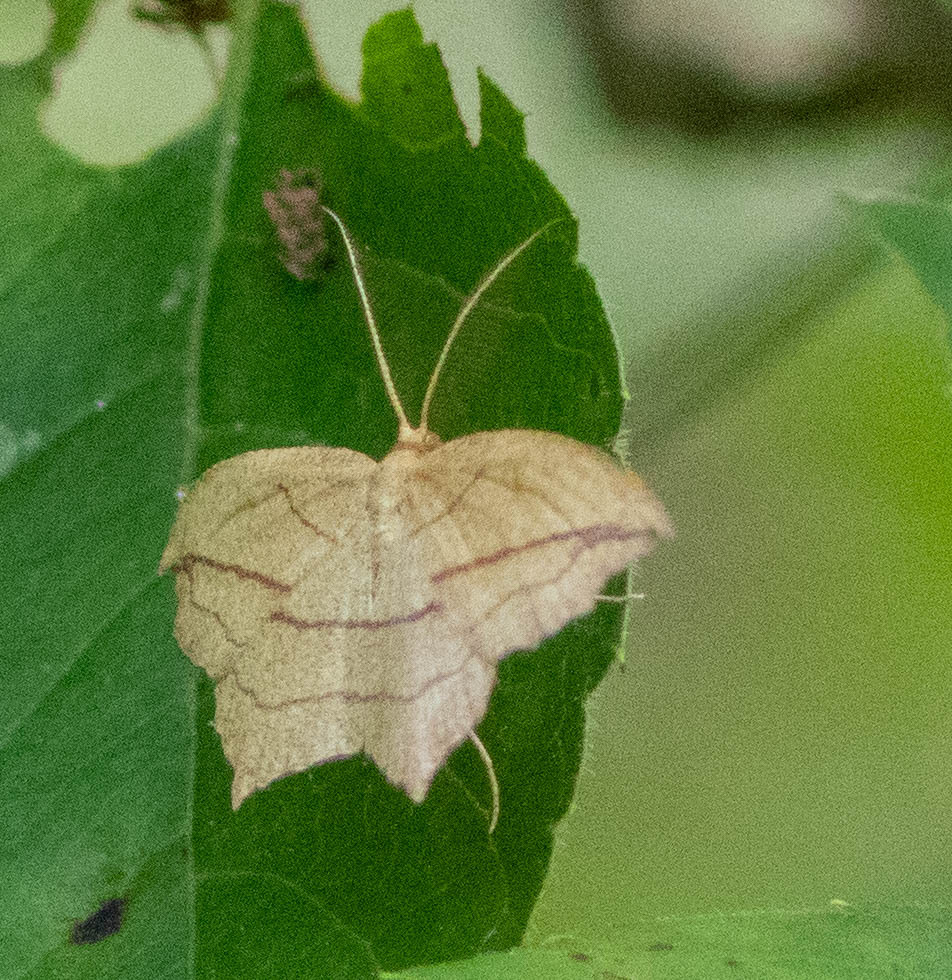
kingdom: Animalia
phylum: Arthropoda
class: Insecta
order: Lepidoptera
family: Geometridae
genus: Timandra
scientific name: Timandra amaturaria
